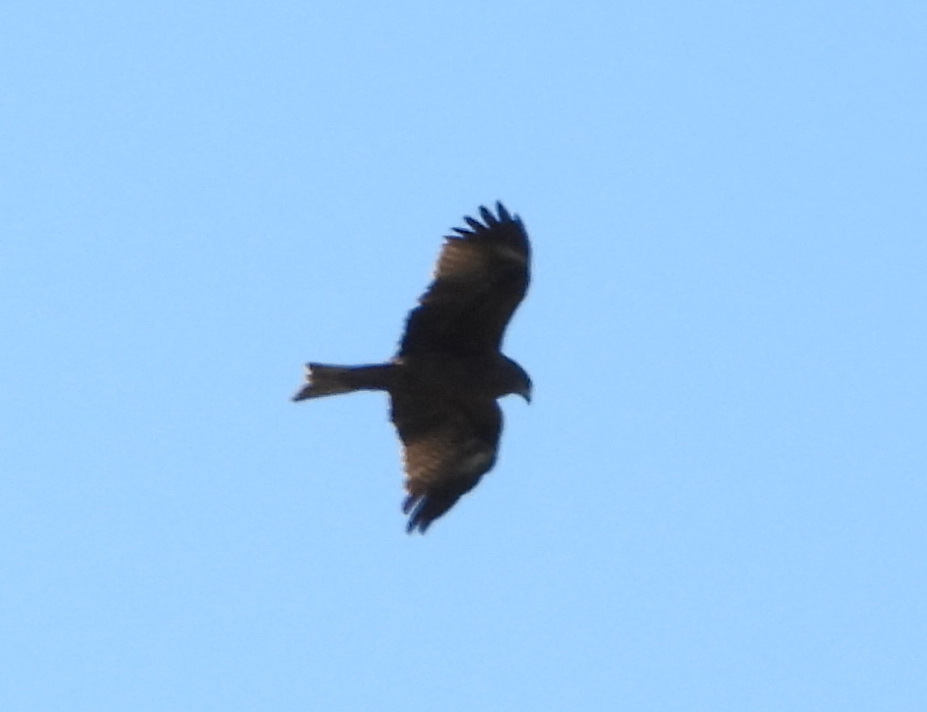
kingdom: Animalia
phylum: Chordata
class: Aves
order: Accipitriformes
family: Accipitridae
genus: Milvus
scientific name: Milvus migrans
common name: Black kite
